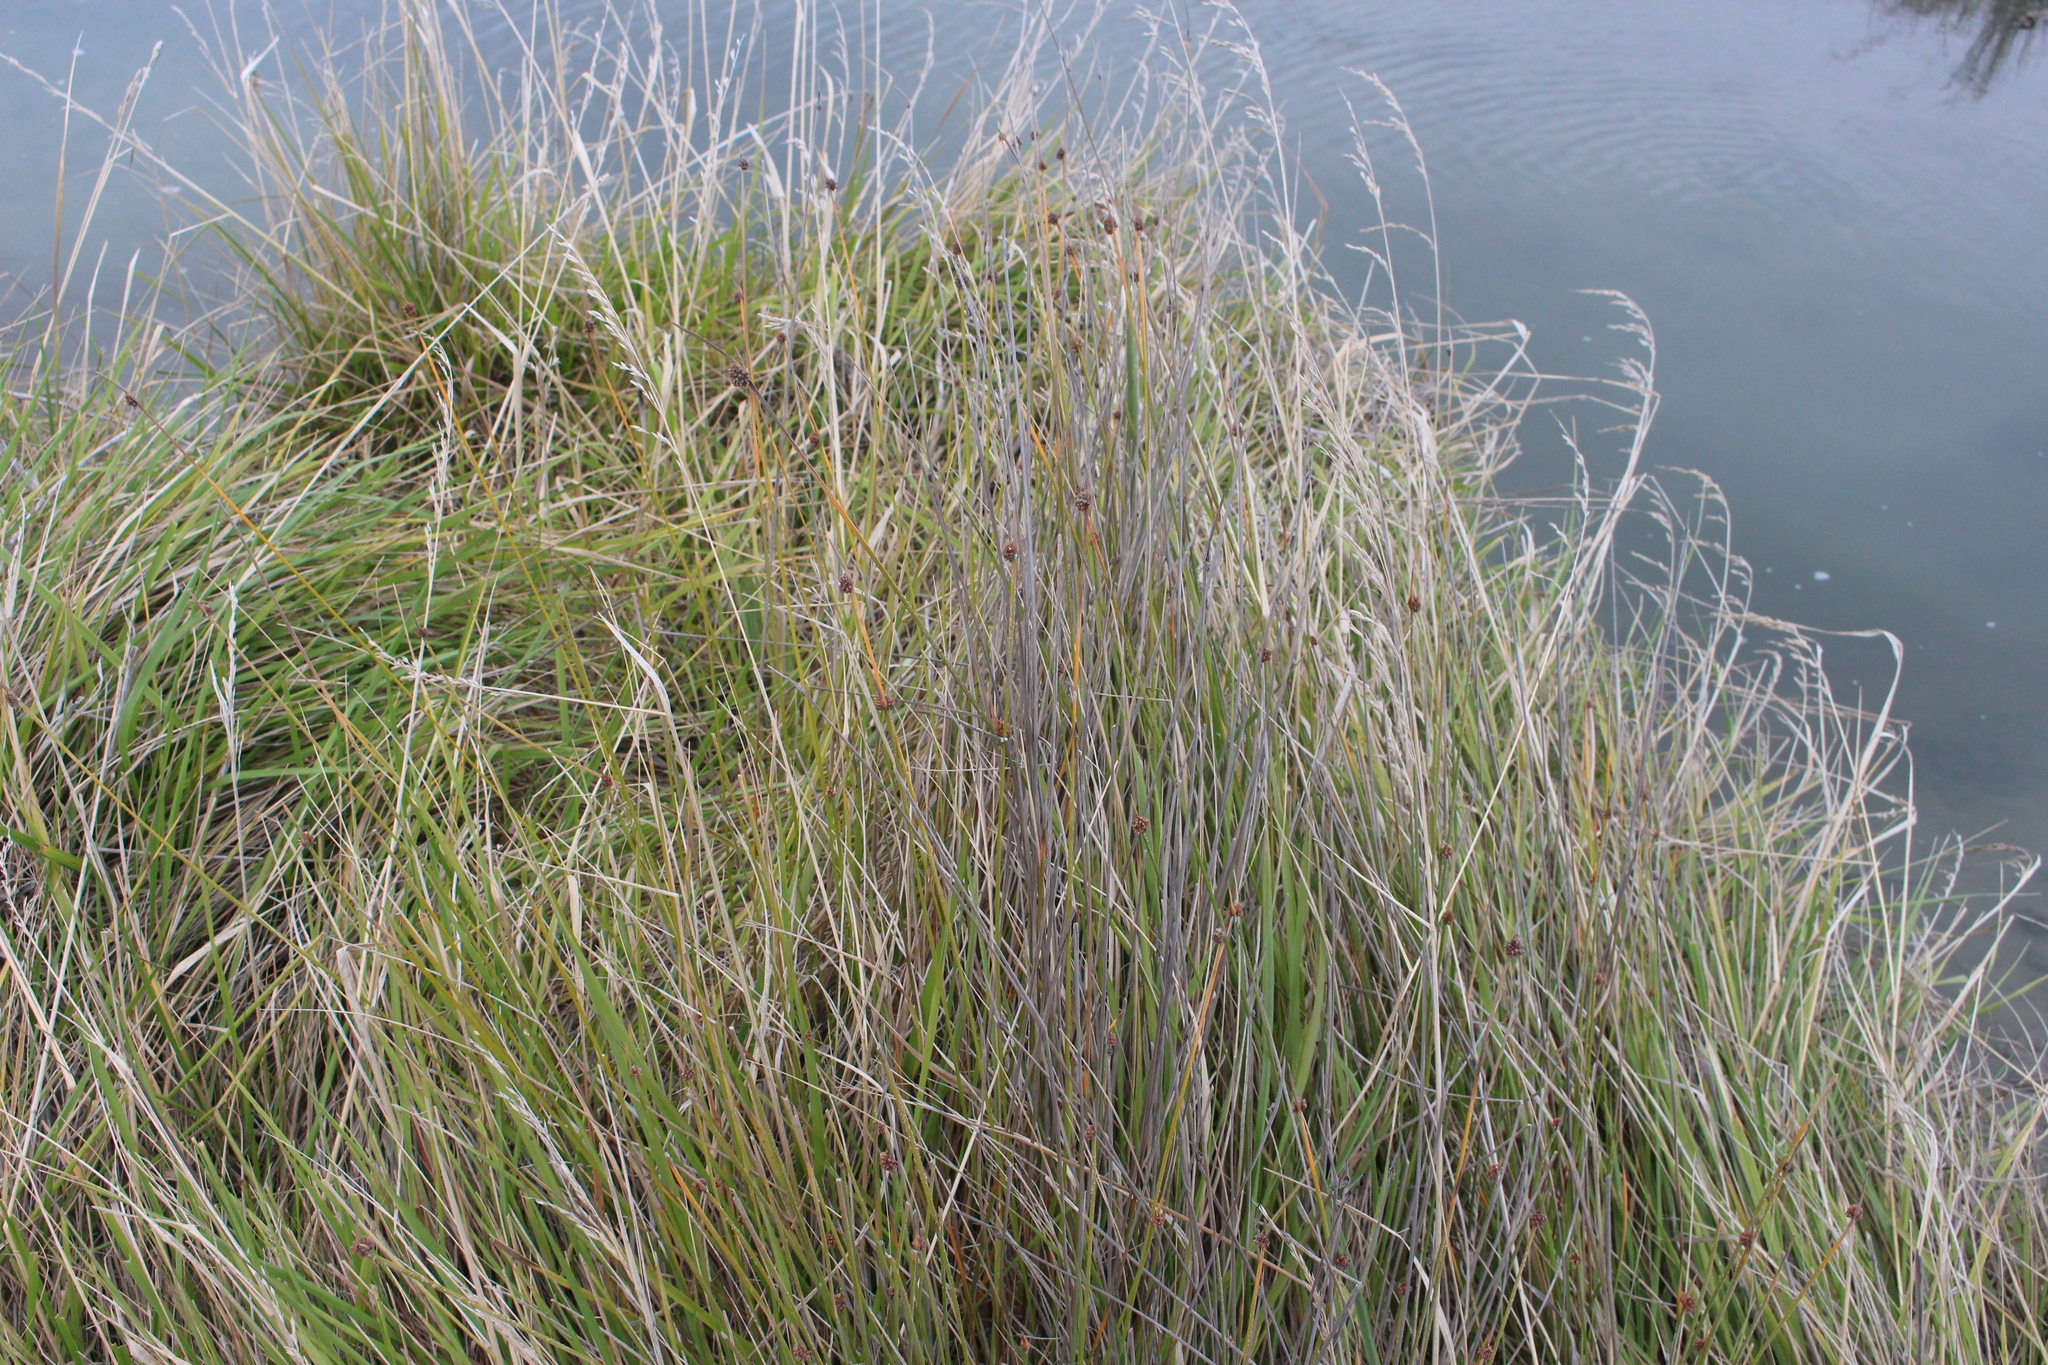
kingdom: Plantae
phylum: Tracheophyta
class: Liliopsida
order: Poales
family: Cyperaceae
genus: Ficinia
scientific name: Ficinia nodosa
